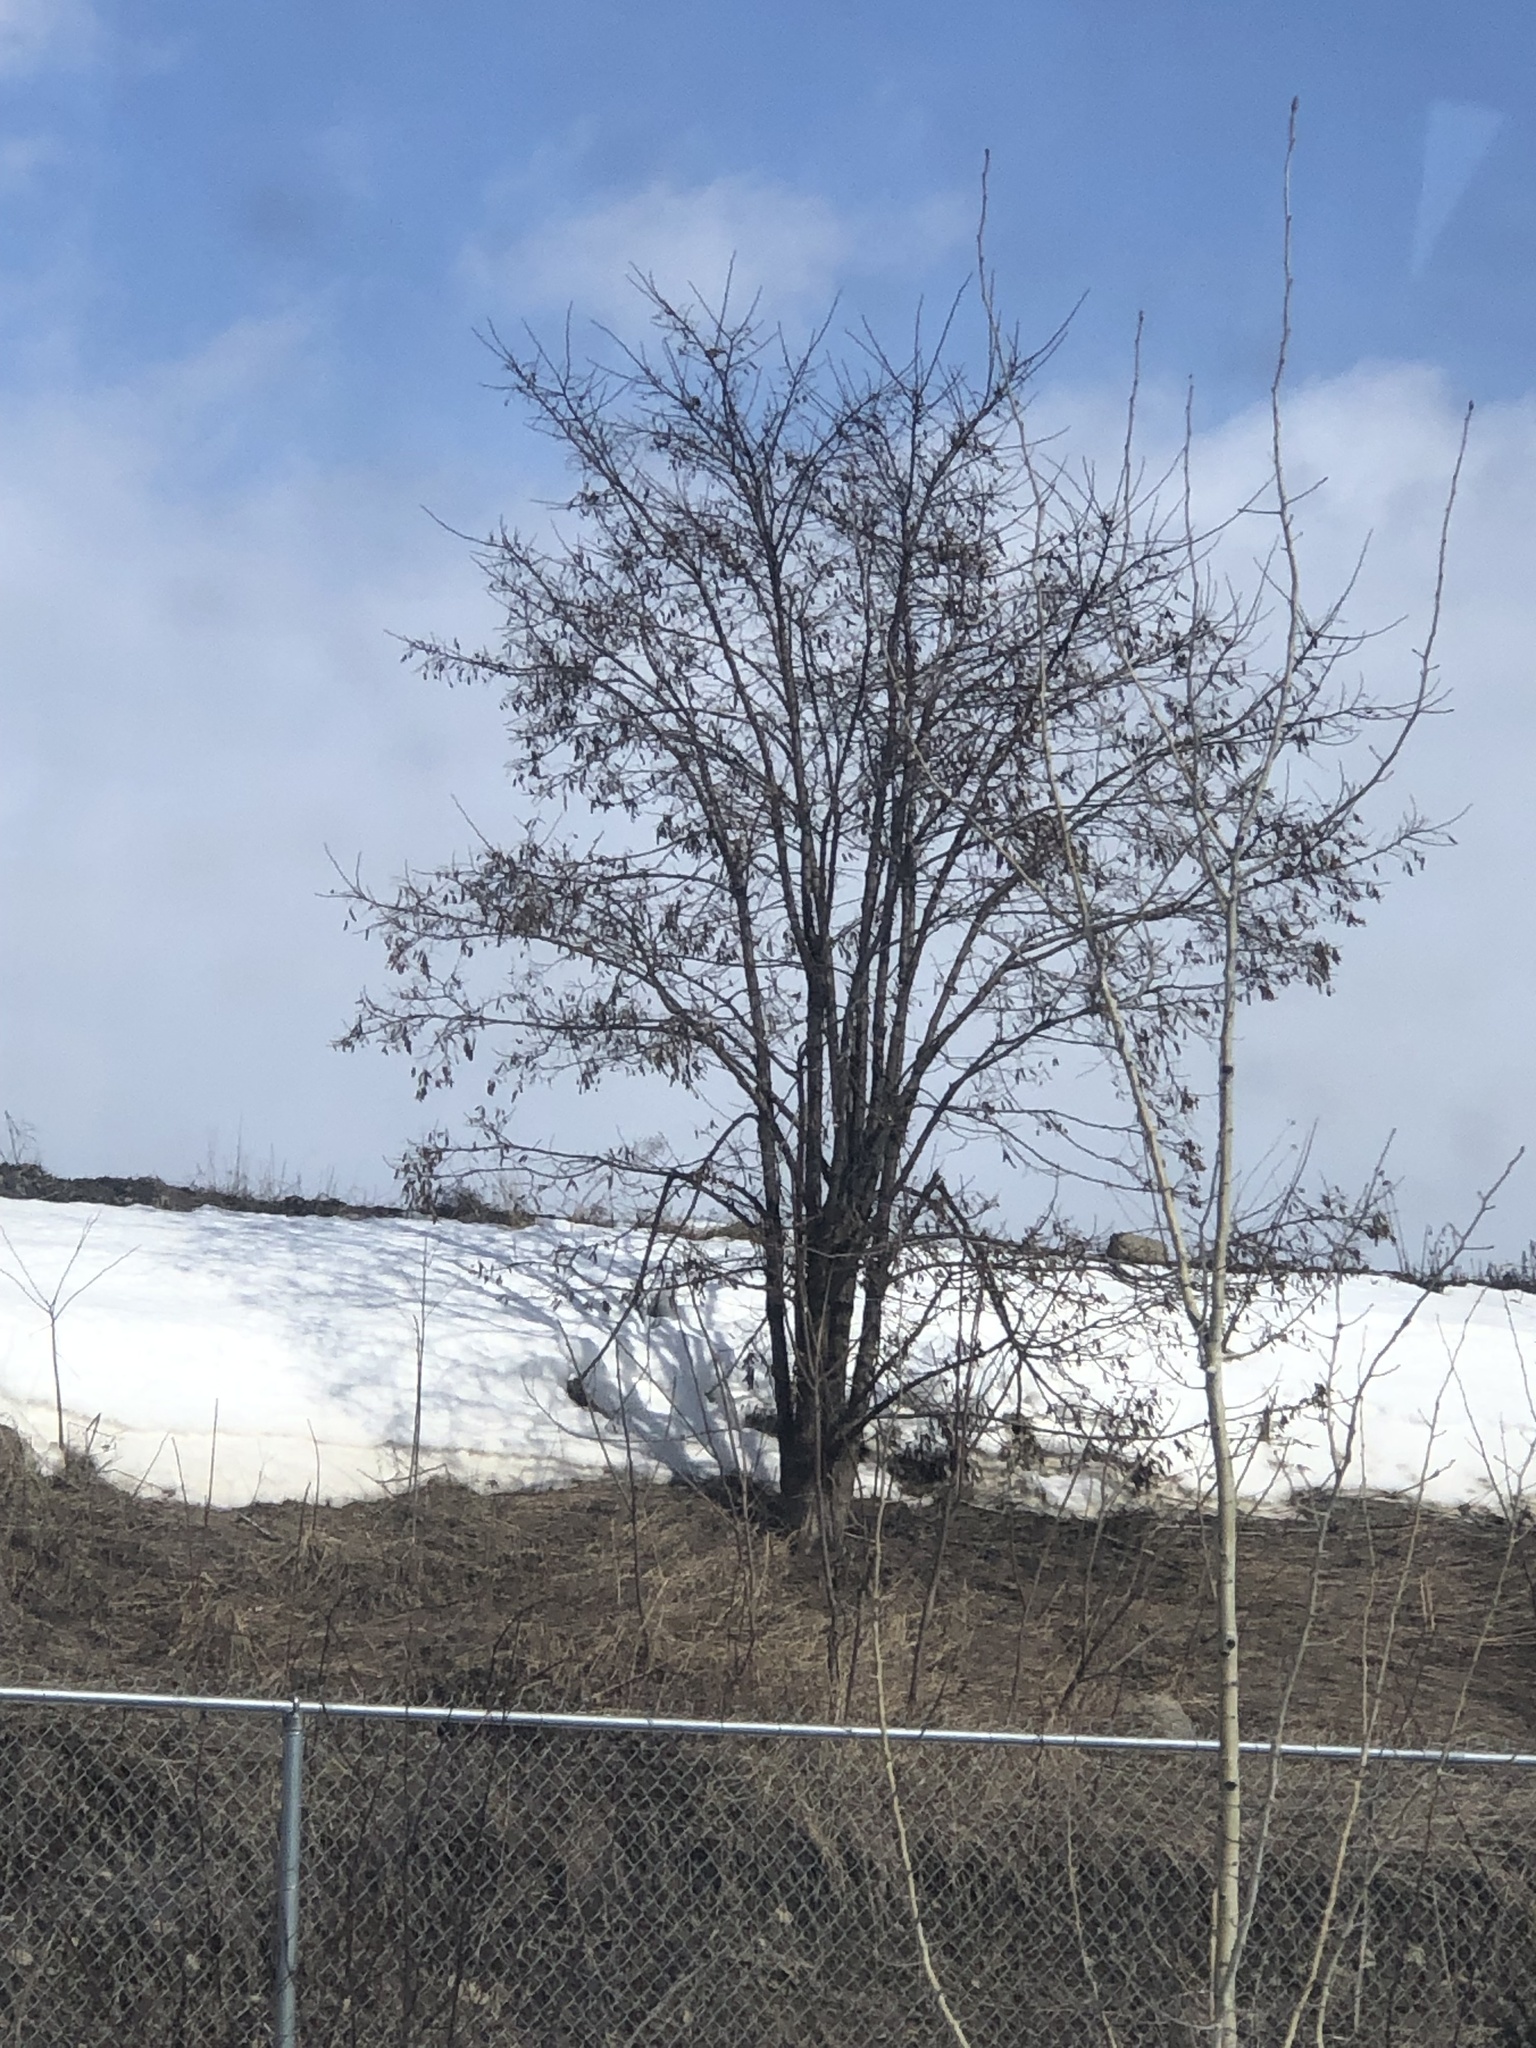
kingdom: Plantae
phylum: Tracheophyta
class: Magnoliopsida
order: Fabales
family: Fabaceae
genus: Robinia
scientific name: Robinia pseudoacacia
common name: Black locust
